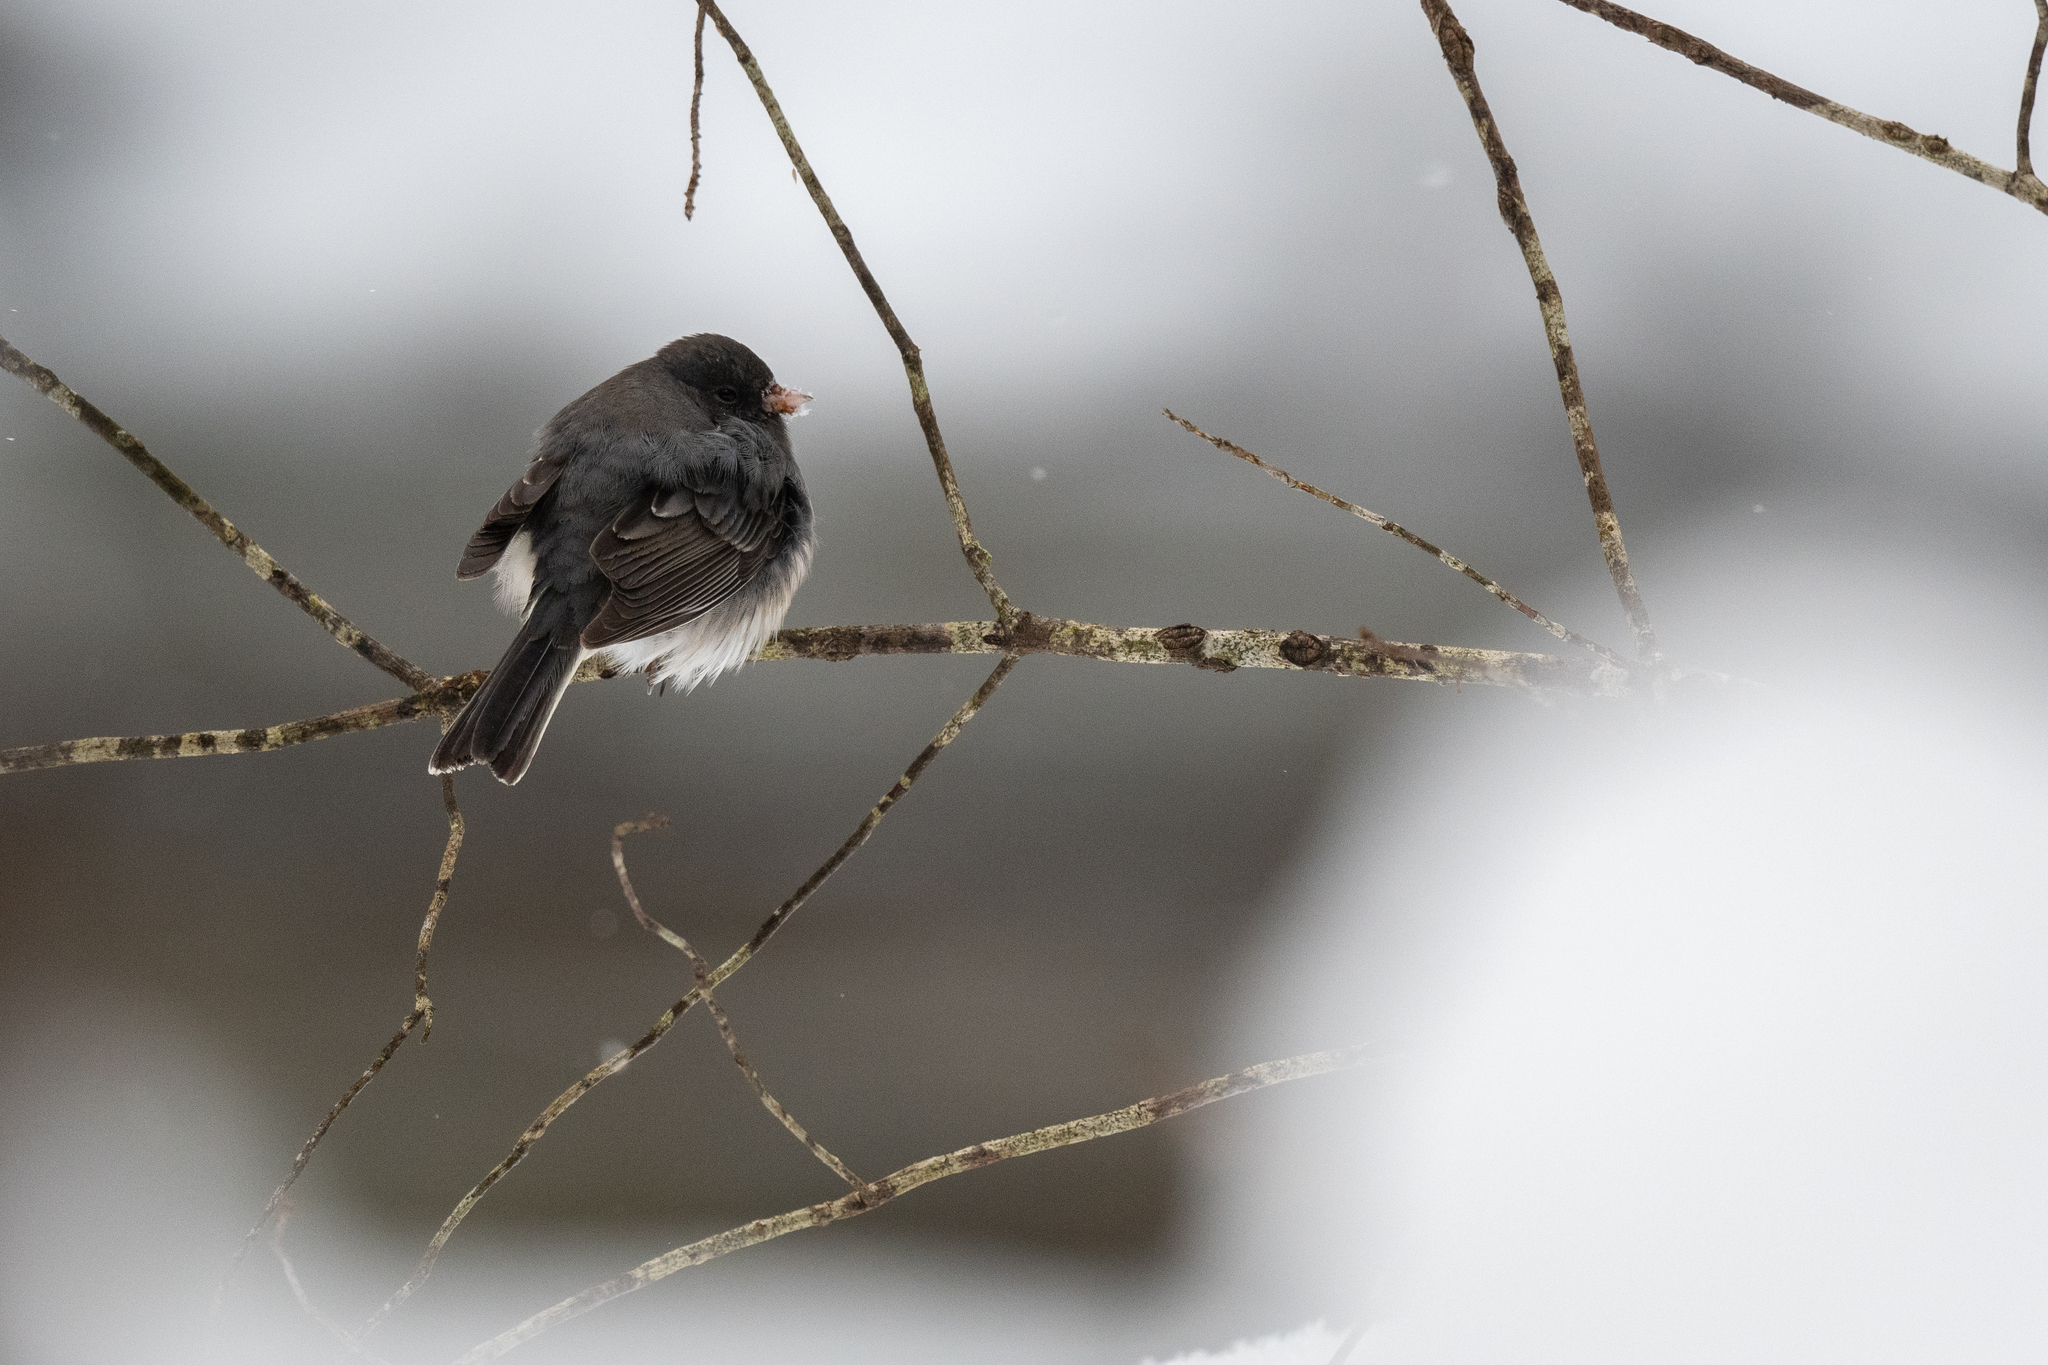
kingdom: Animalia
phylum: Chordata
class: Aves
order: Passeriformes
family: Passerellidae
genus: Junco
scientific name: Junco hyemalis
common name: Dark-eyed junco
